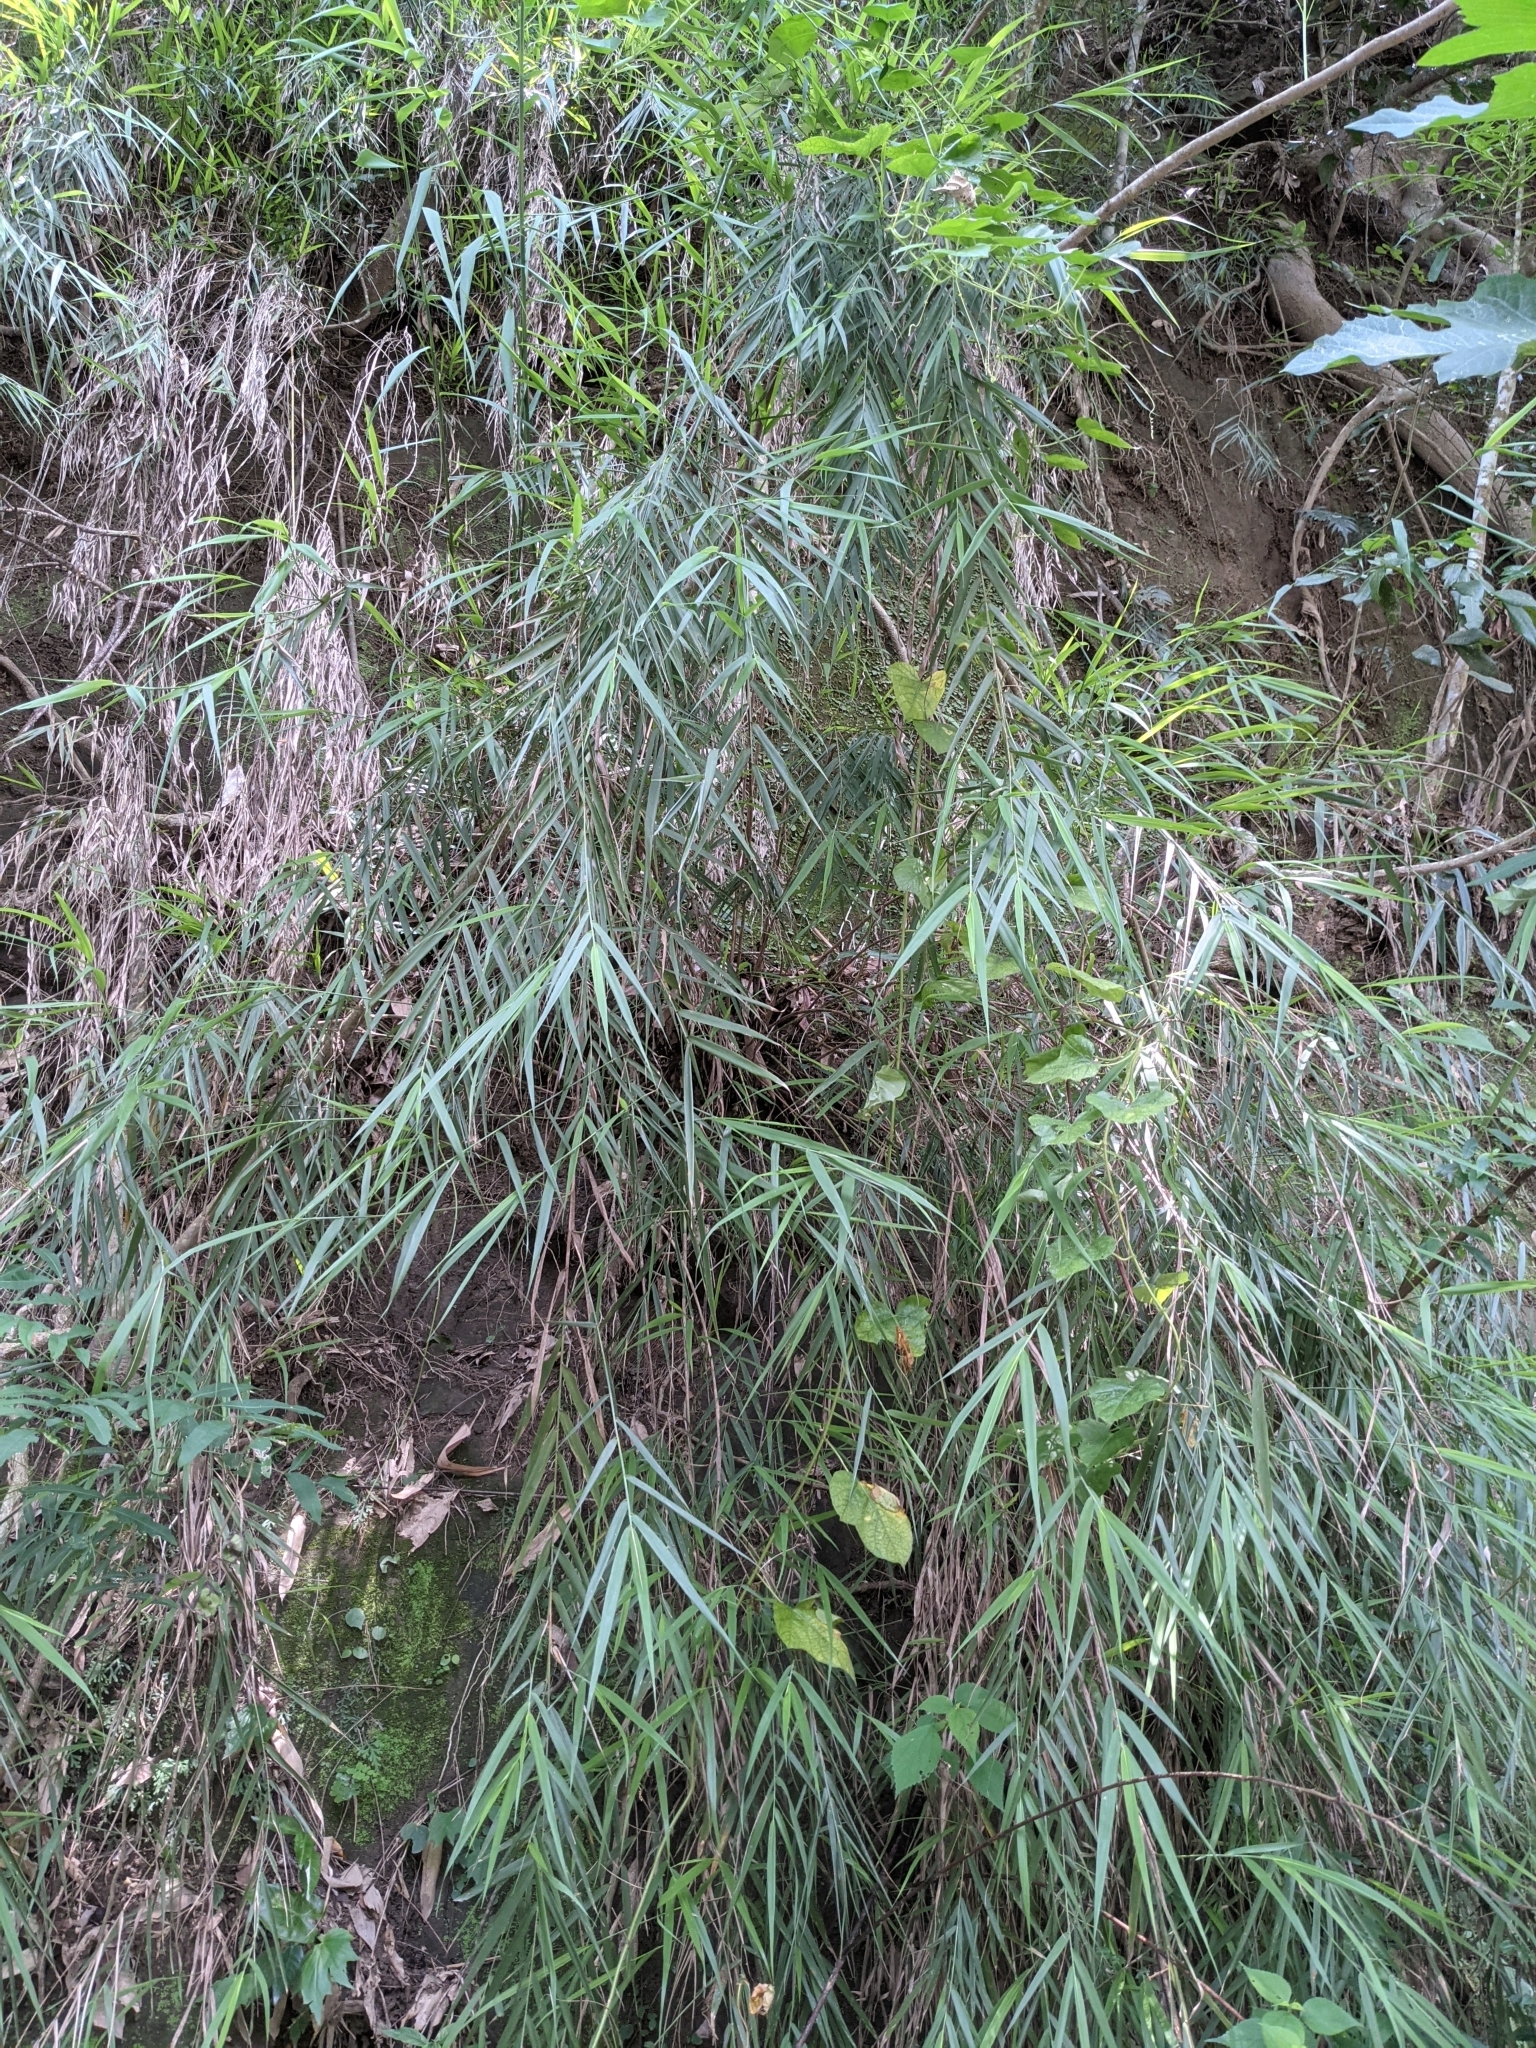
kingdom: Plantae
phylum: Tracheophyta
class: Liliopsida
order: Poales
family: Poaceae
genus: Arundo
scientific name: Arundo formosana
